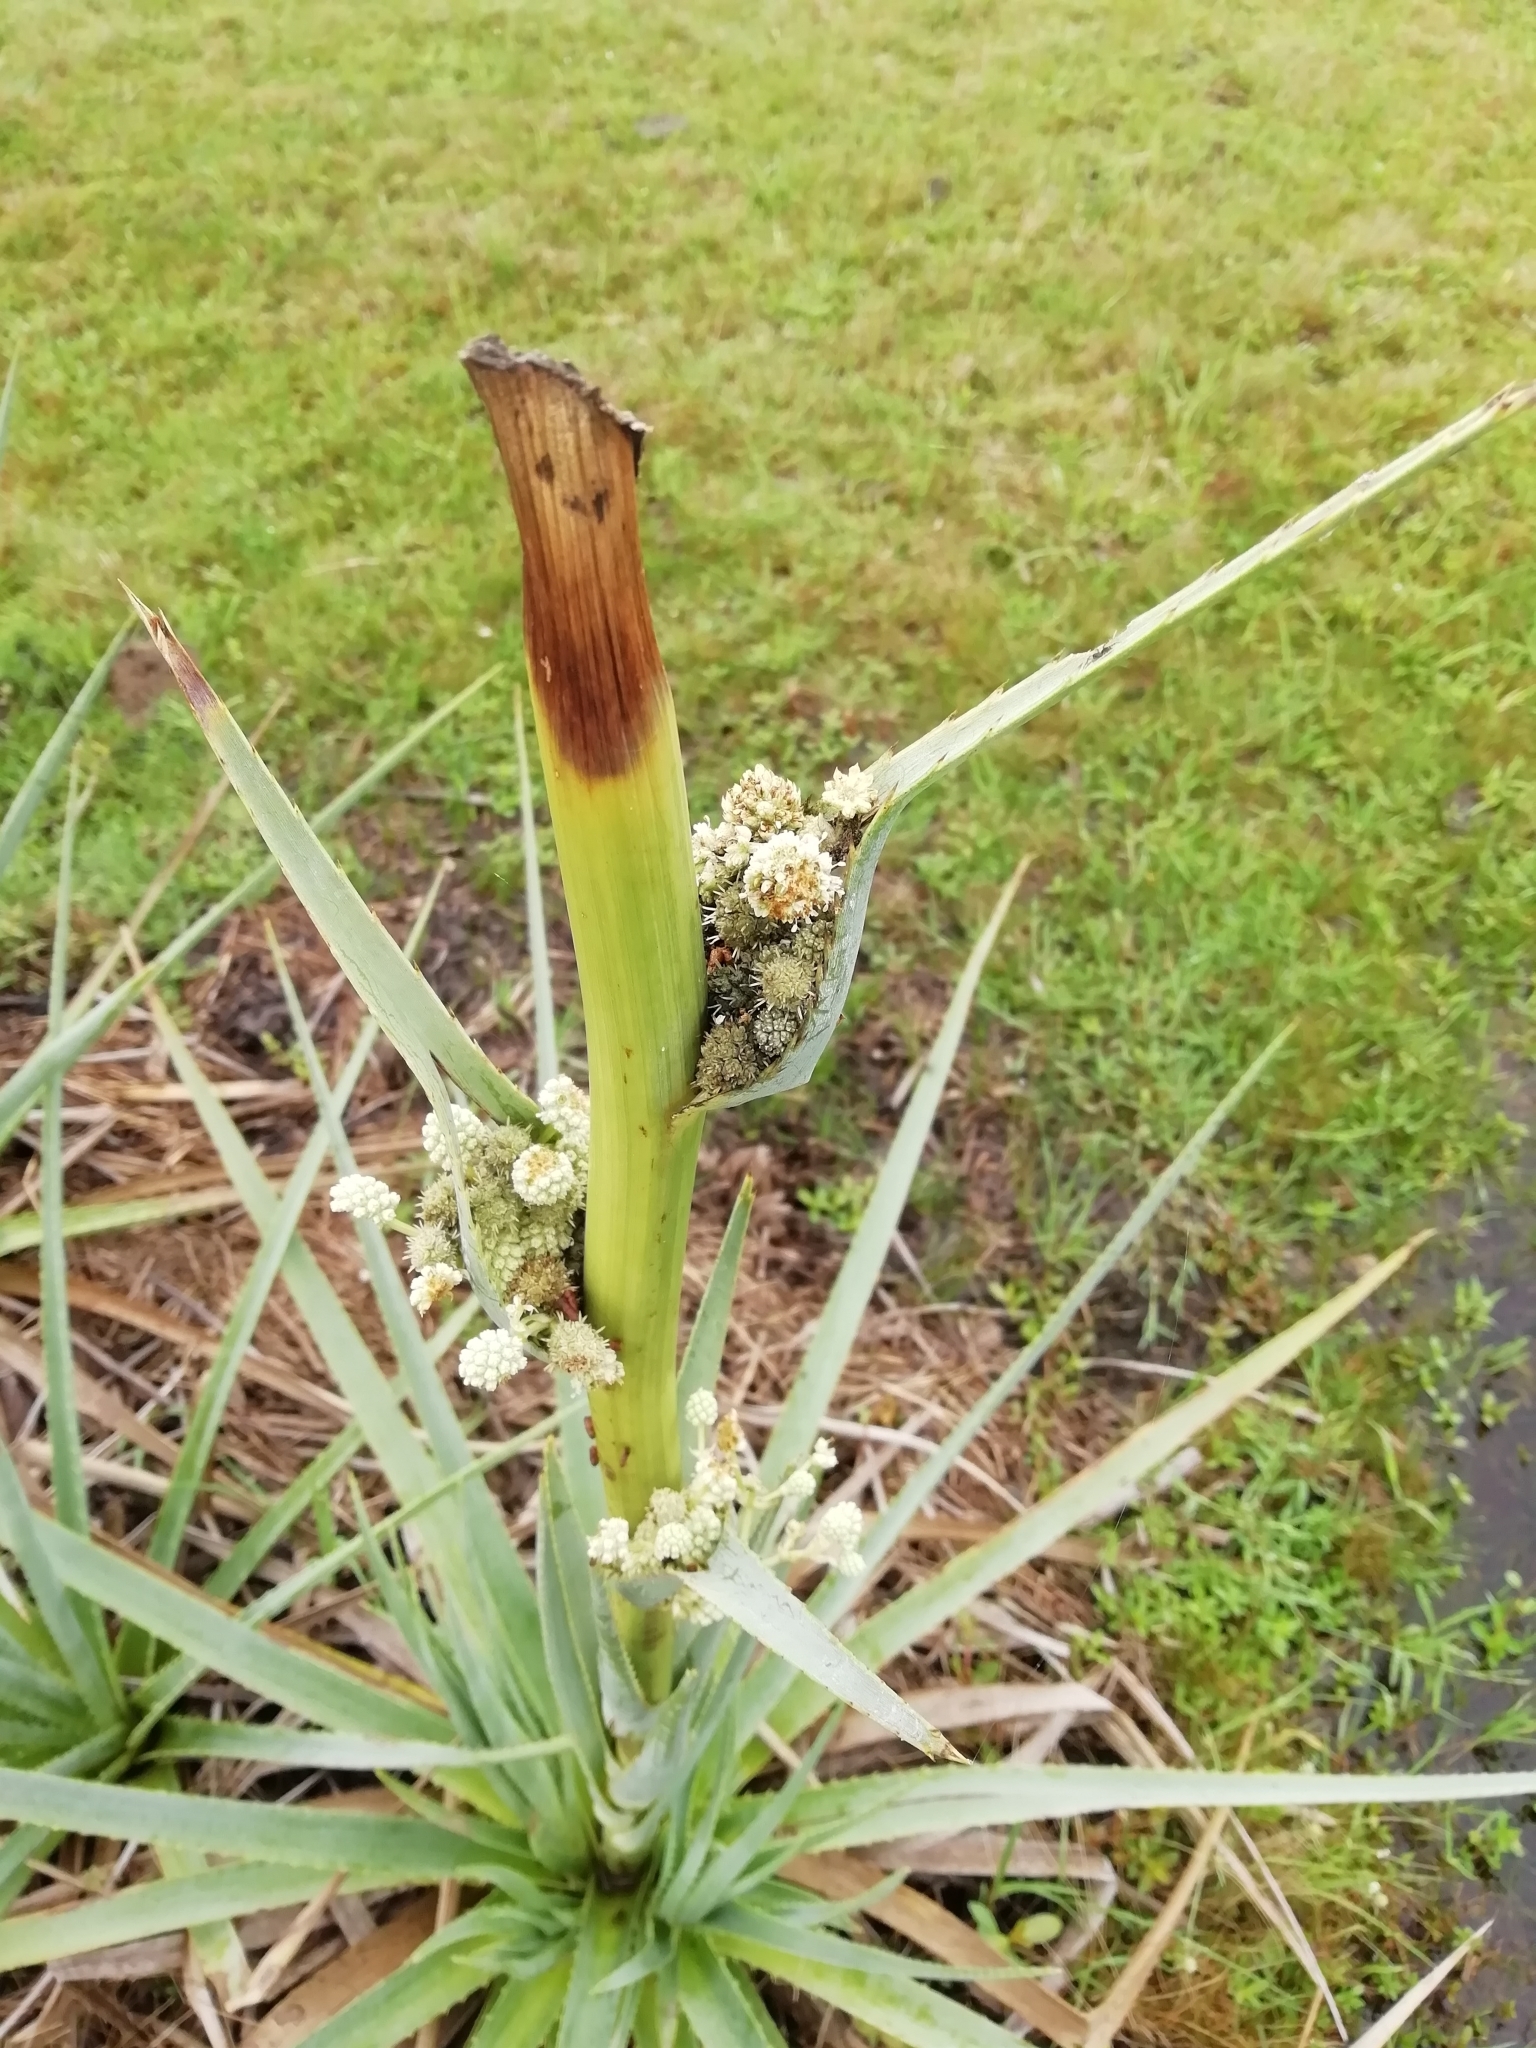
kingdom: Plantae
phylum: Tracheophyta
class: Magnoliopsida
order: Apiales
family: Apiaceae
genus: Eryngium
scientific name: Eryngium pandanifolium
